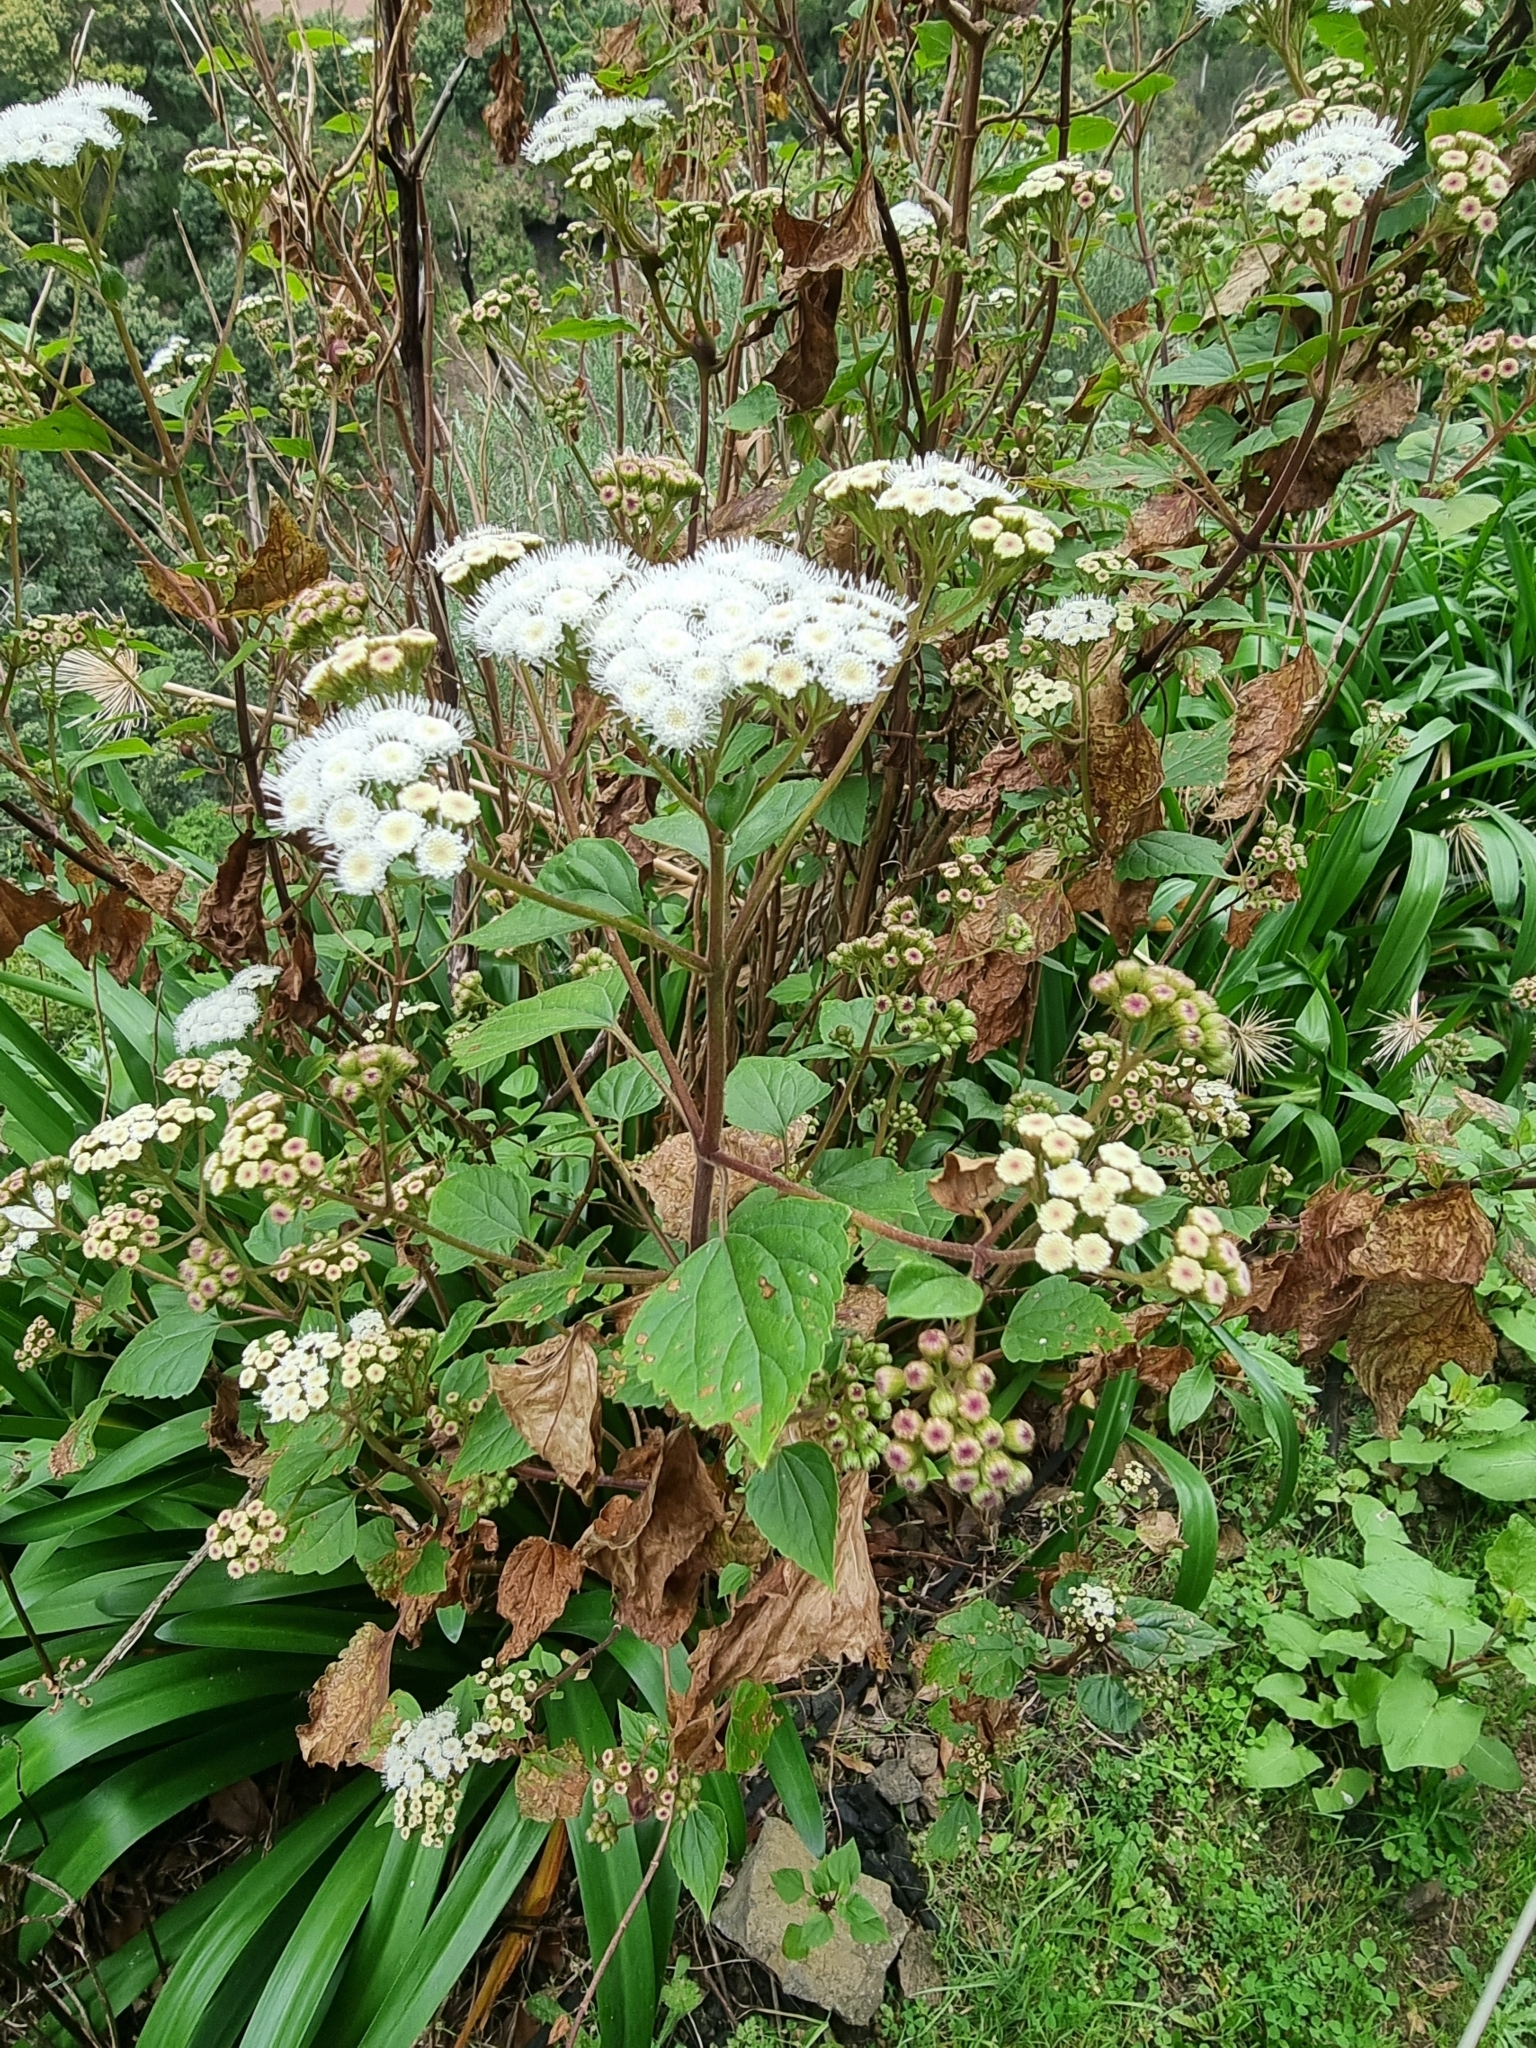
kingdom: Plantae
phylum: Tracheophyta
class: Magnoliopsida
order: Asterales
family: Asteraceae
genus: Ageratina
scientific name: Ageratina adenophora
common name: Sticky snakeroot
